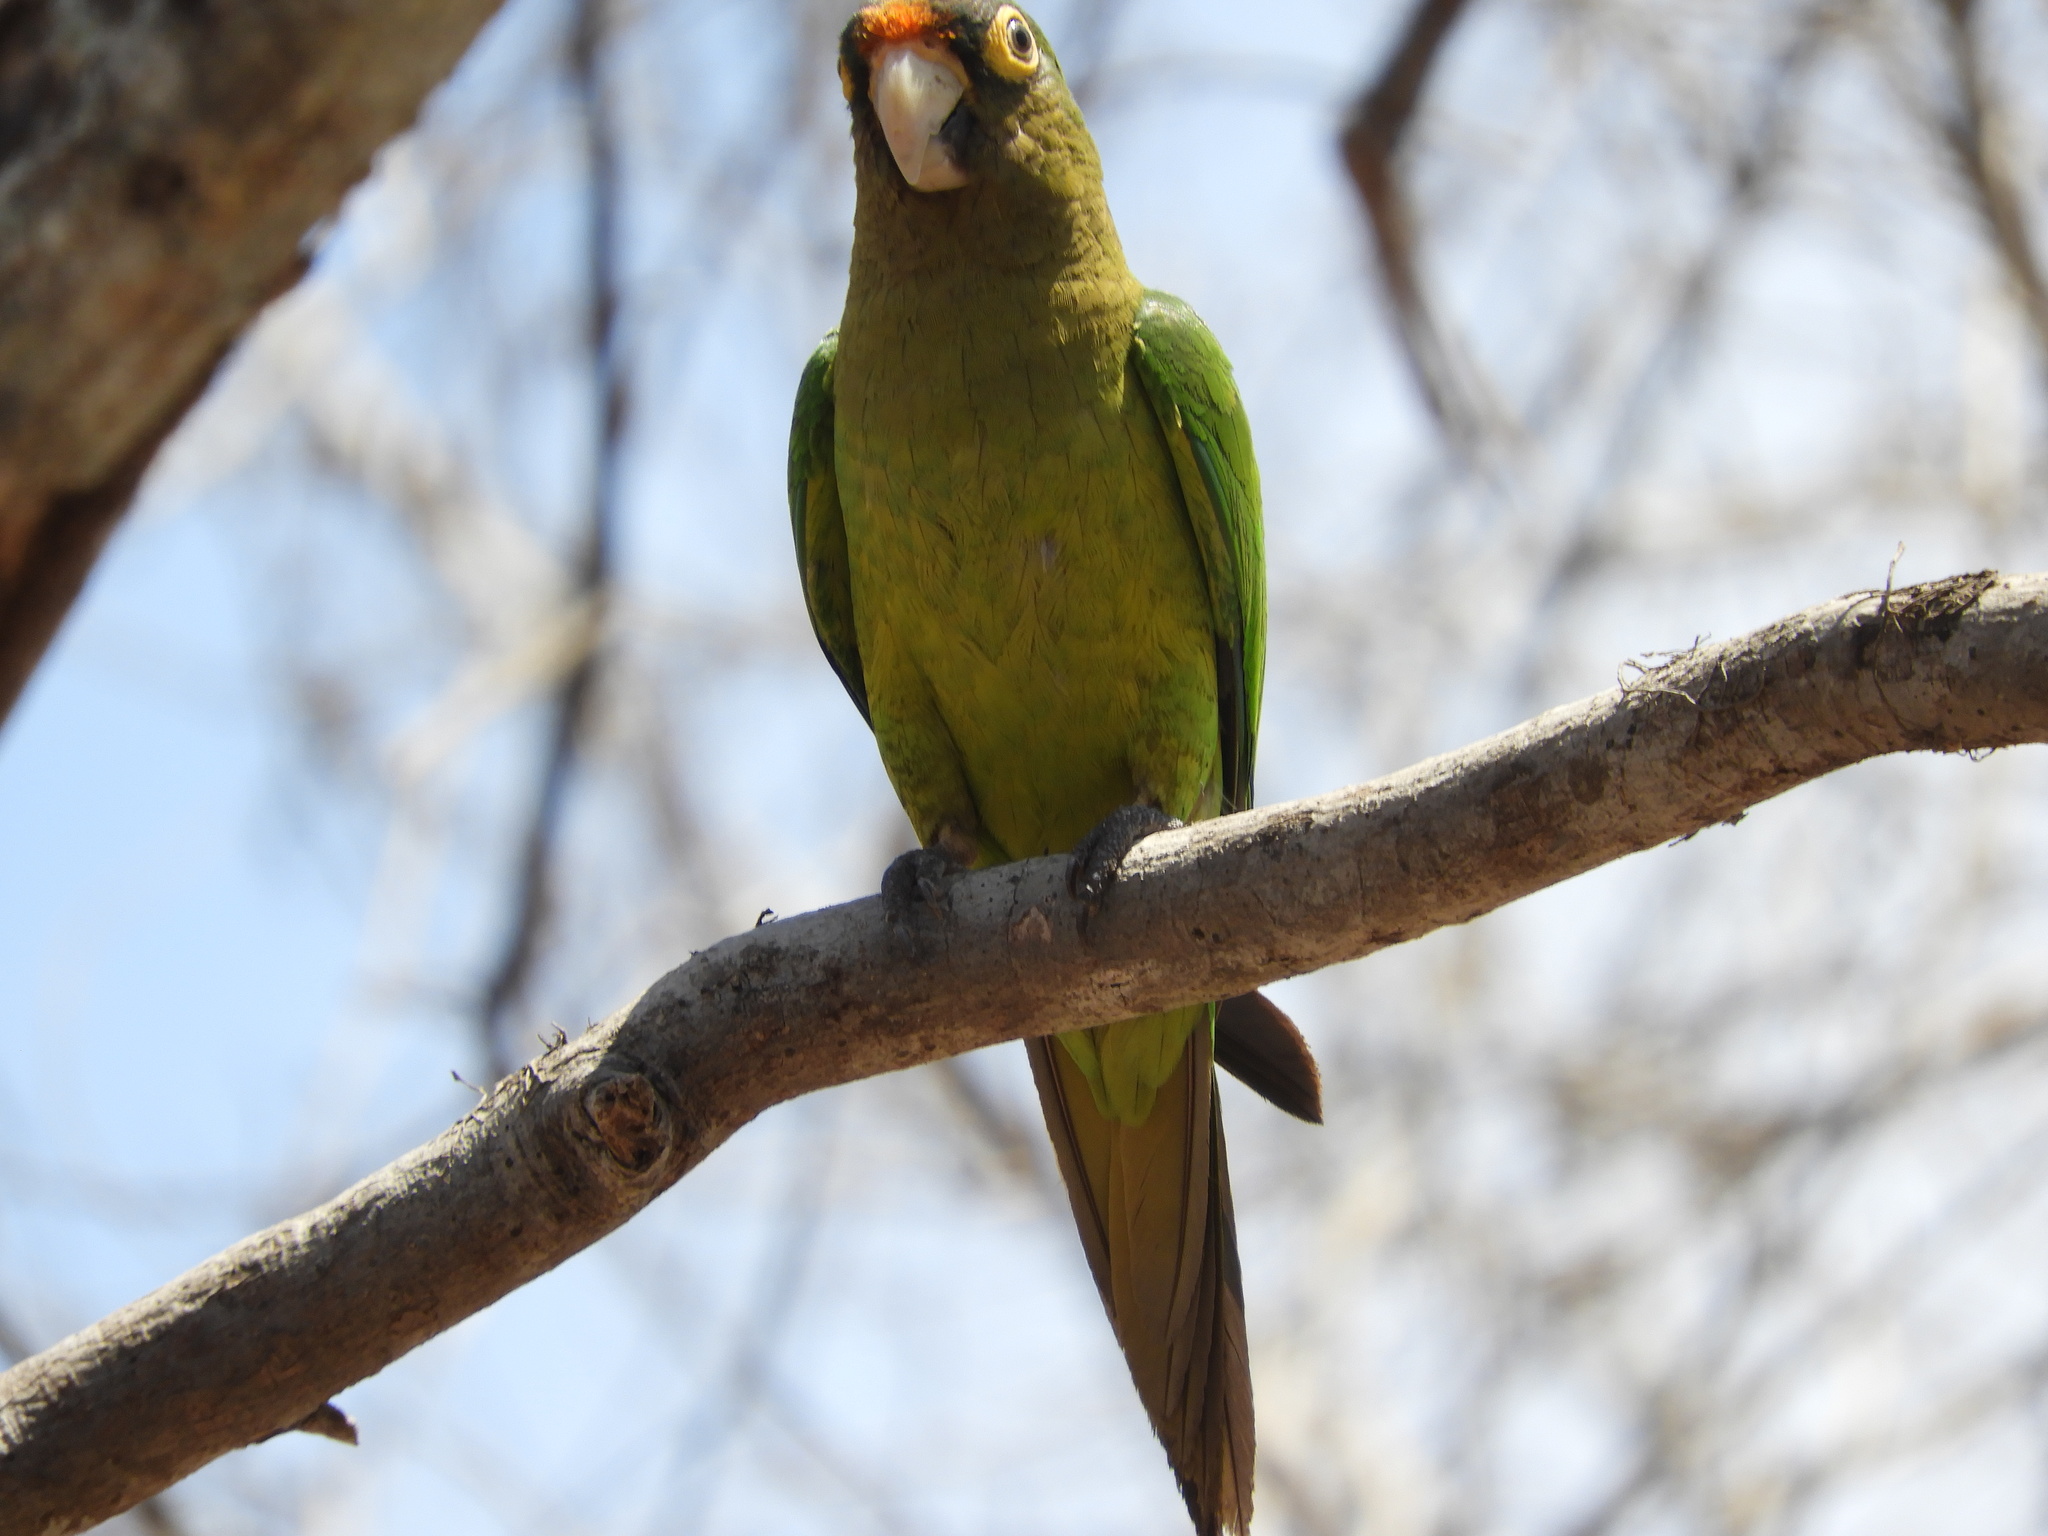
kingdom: Animalia
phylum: Chordata
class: Aves
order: Psittaciformes
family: Psittacidae
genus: Aratinga
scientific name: Aratinga canicularis
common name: Orange-fronted parakeet
